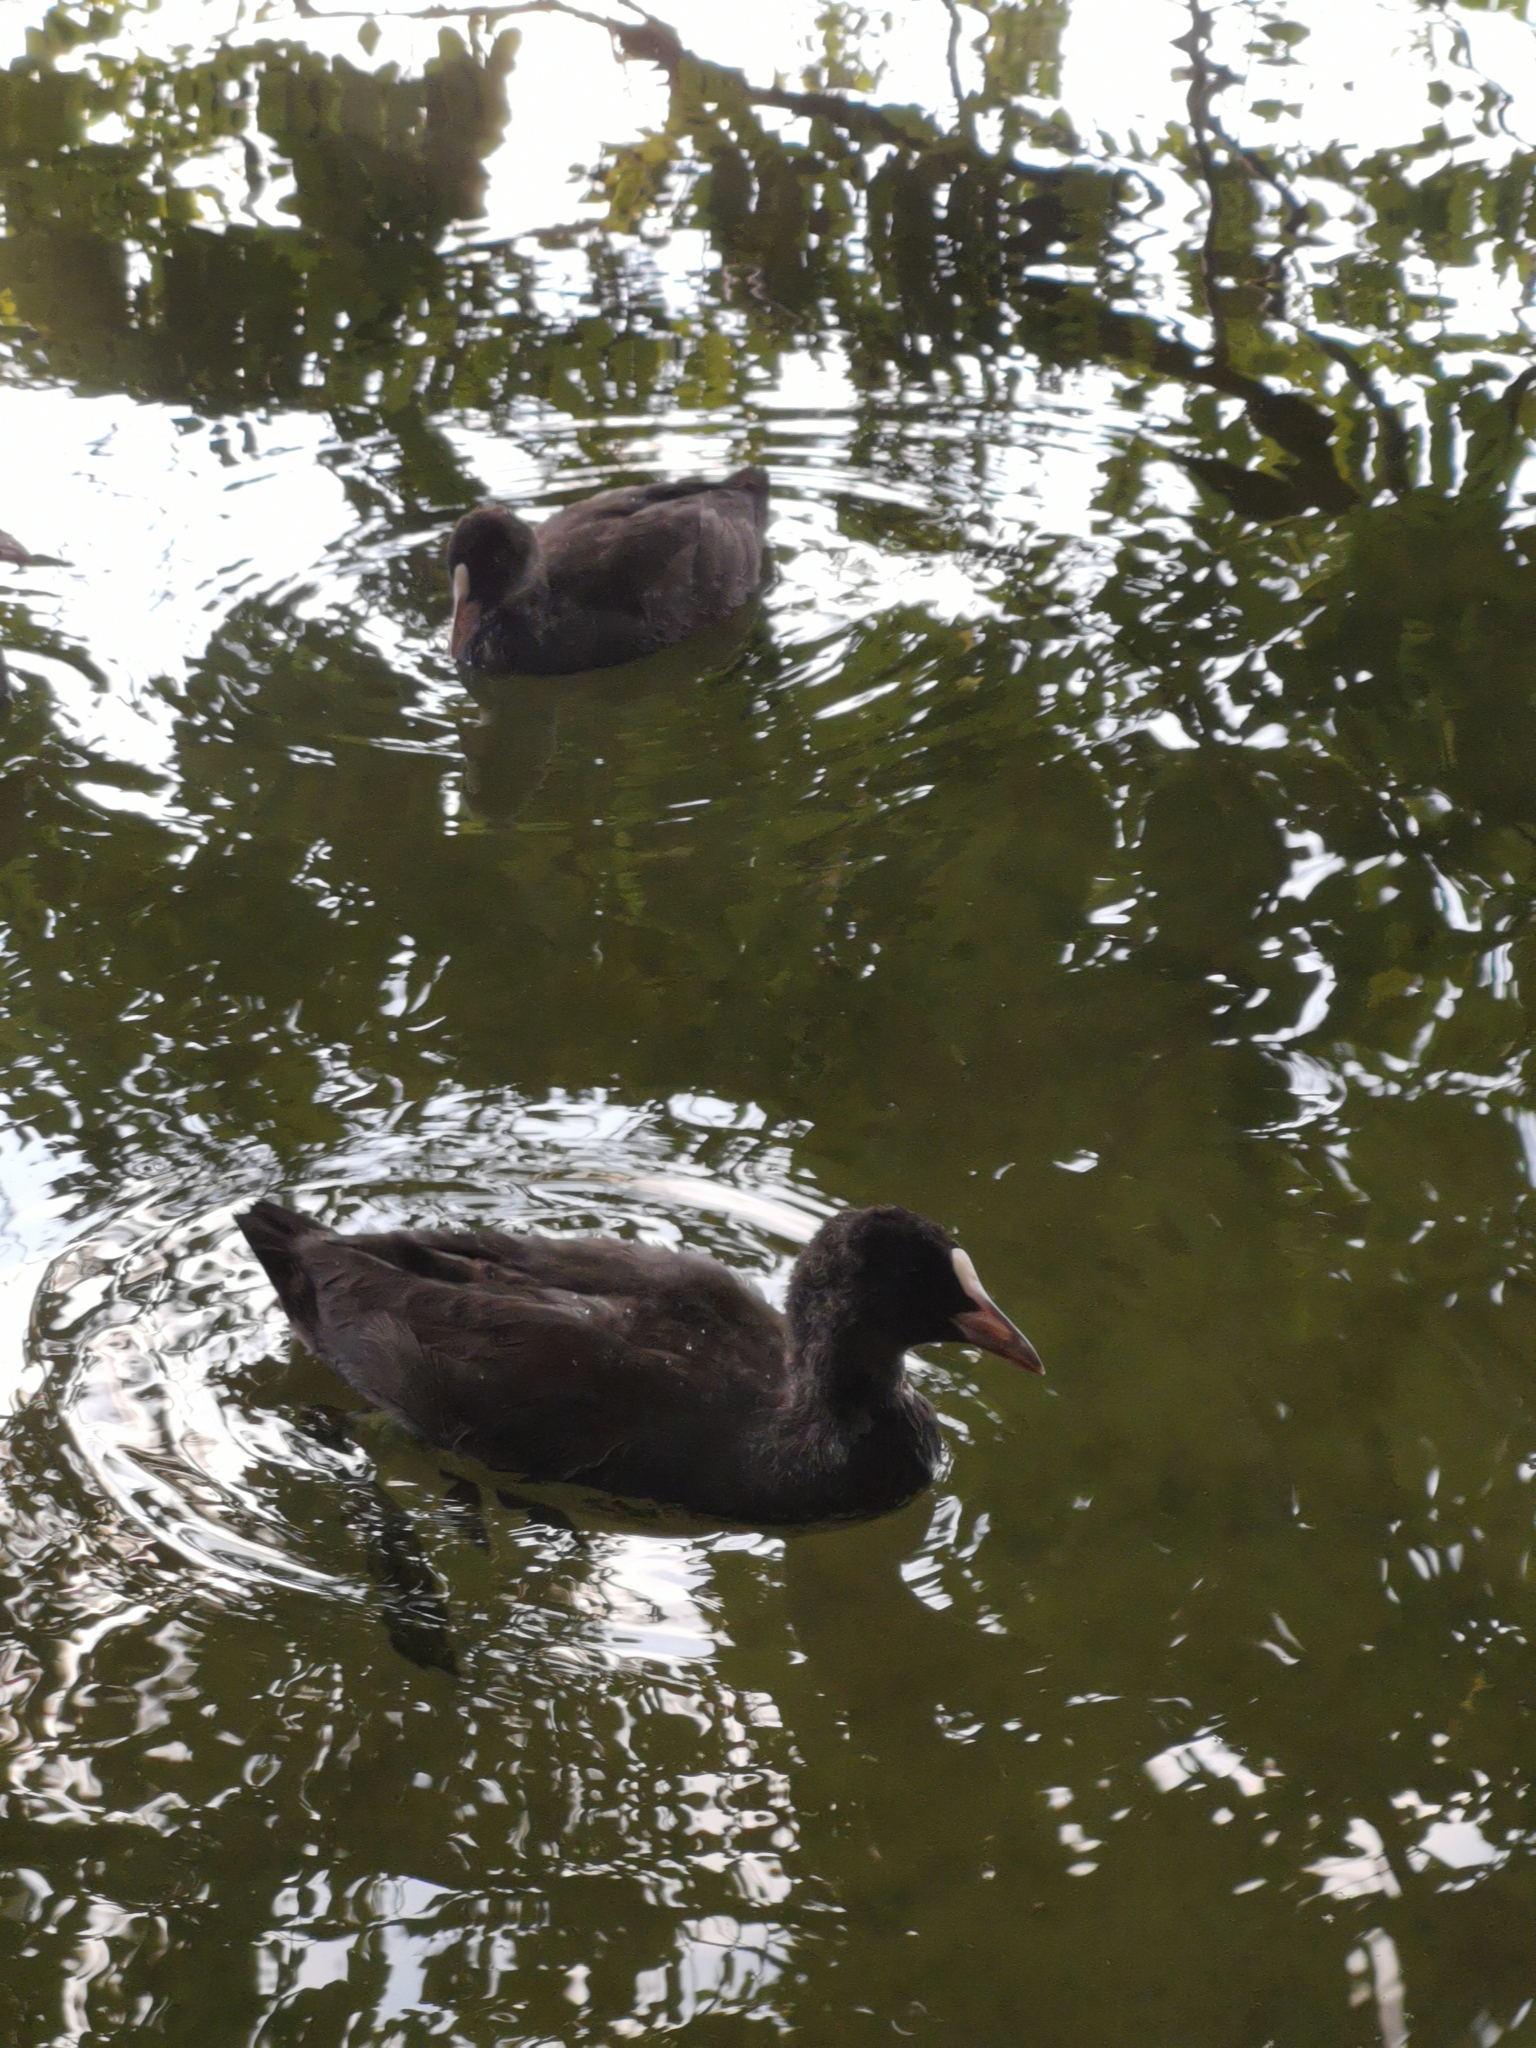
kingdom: Animalia
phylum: Chordata
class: Aves
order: Gruiformes
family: Rallidae
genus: Fulica
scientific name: Fulica atra
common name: Eurasian coot
